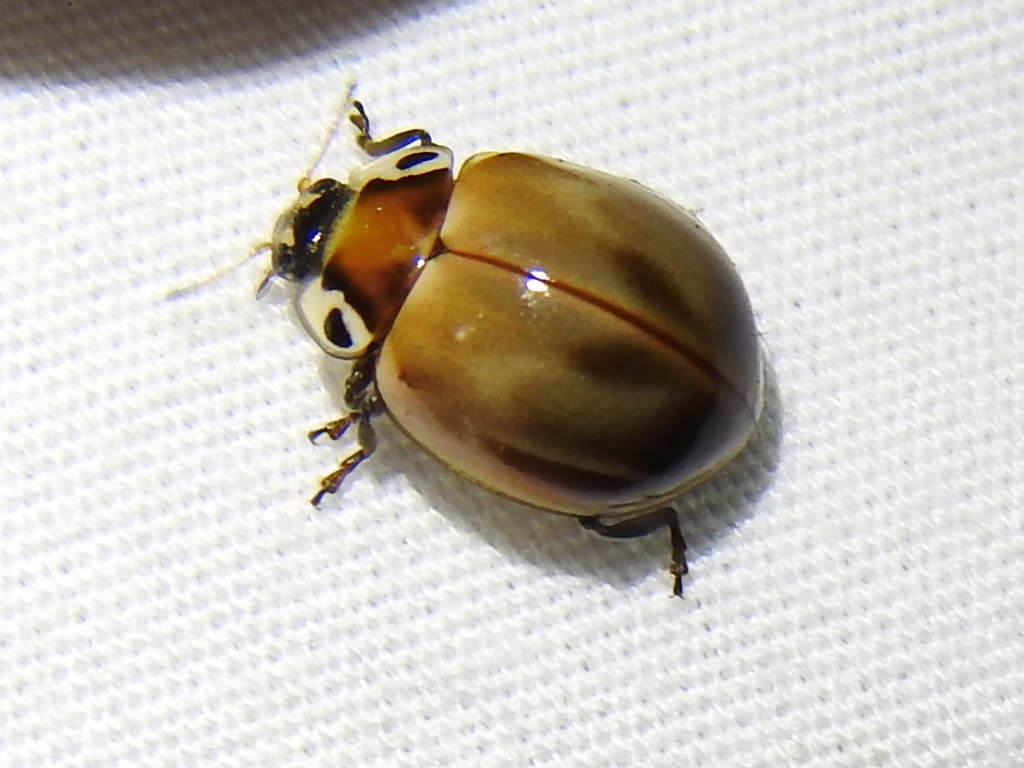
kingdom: Animalia
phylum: Arthropoda
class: Insecta
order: Coleoptera
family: Coccinellidae
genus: Myzia
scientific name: Myzia pullata
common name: Streaked lady beetle
